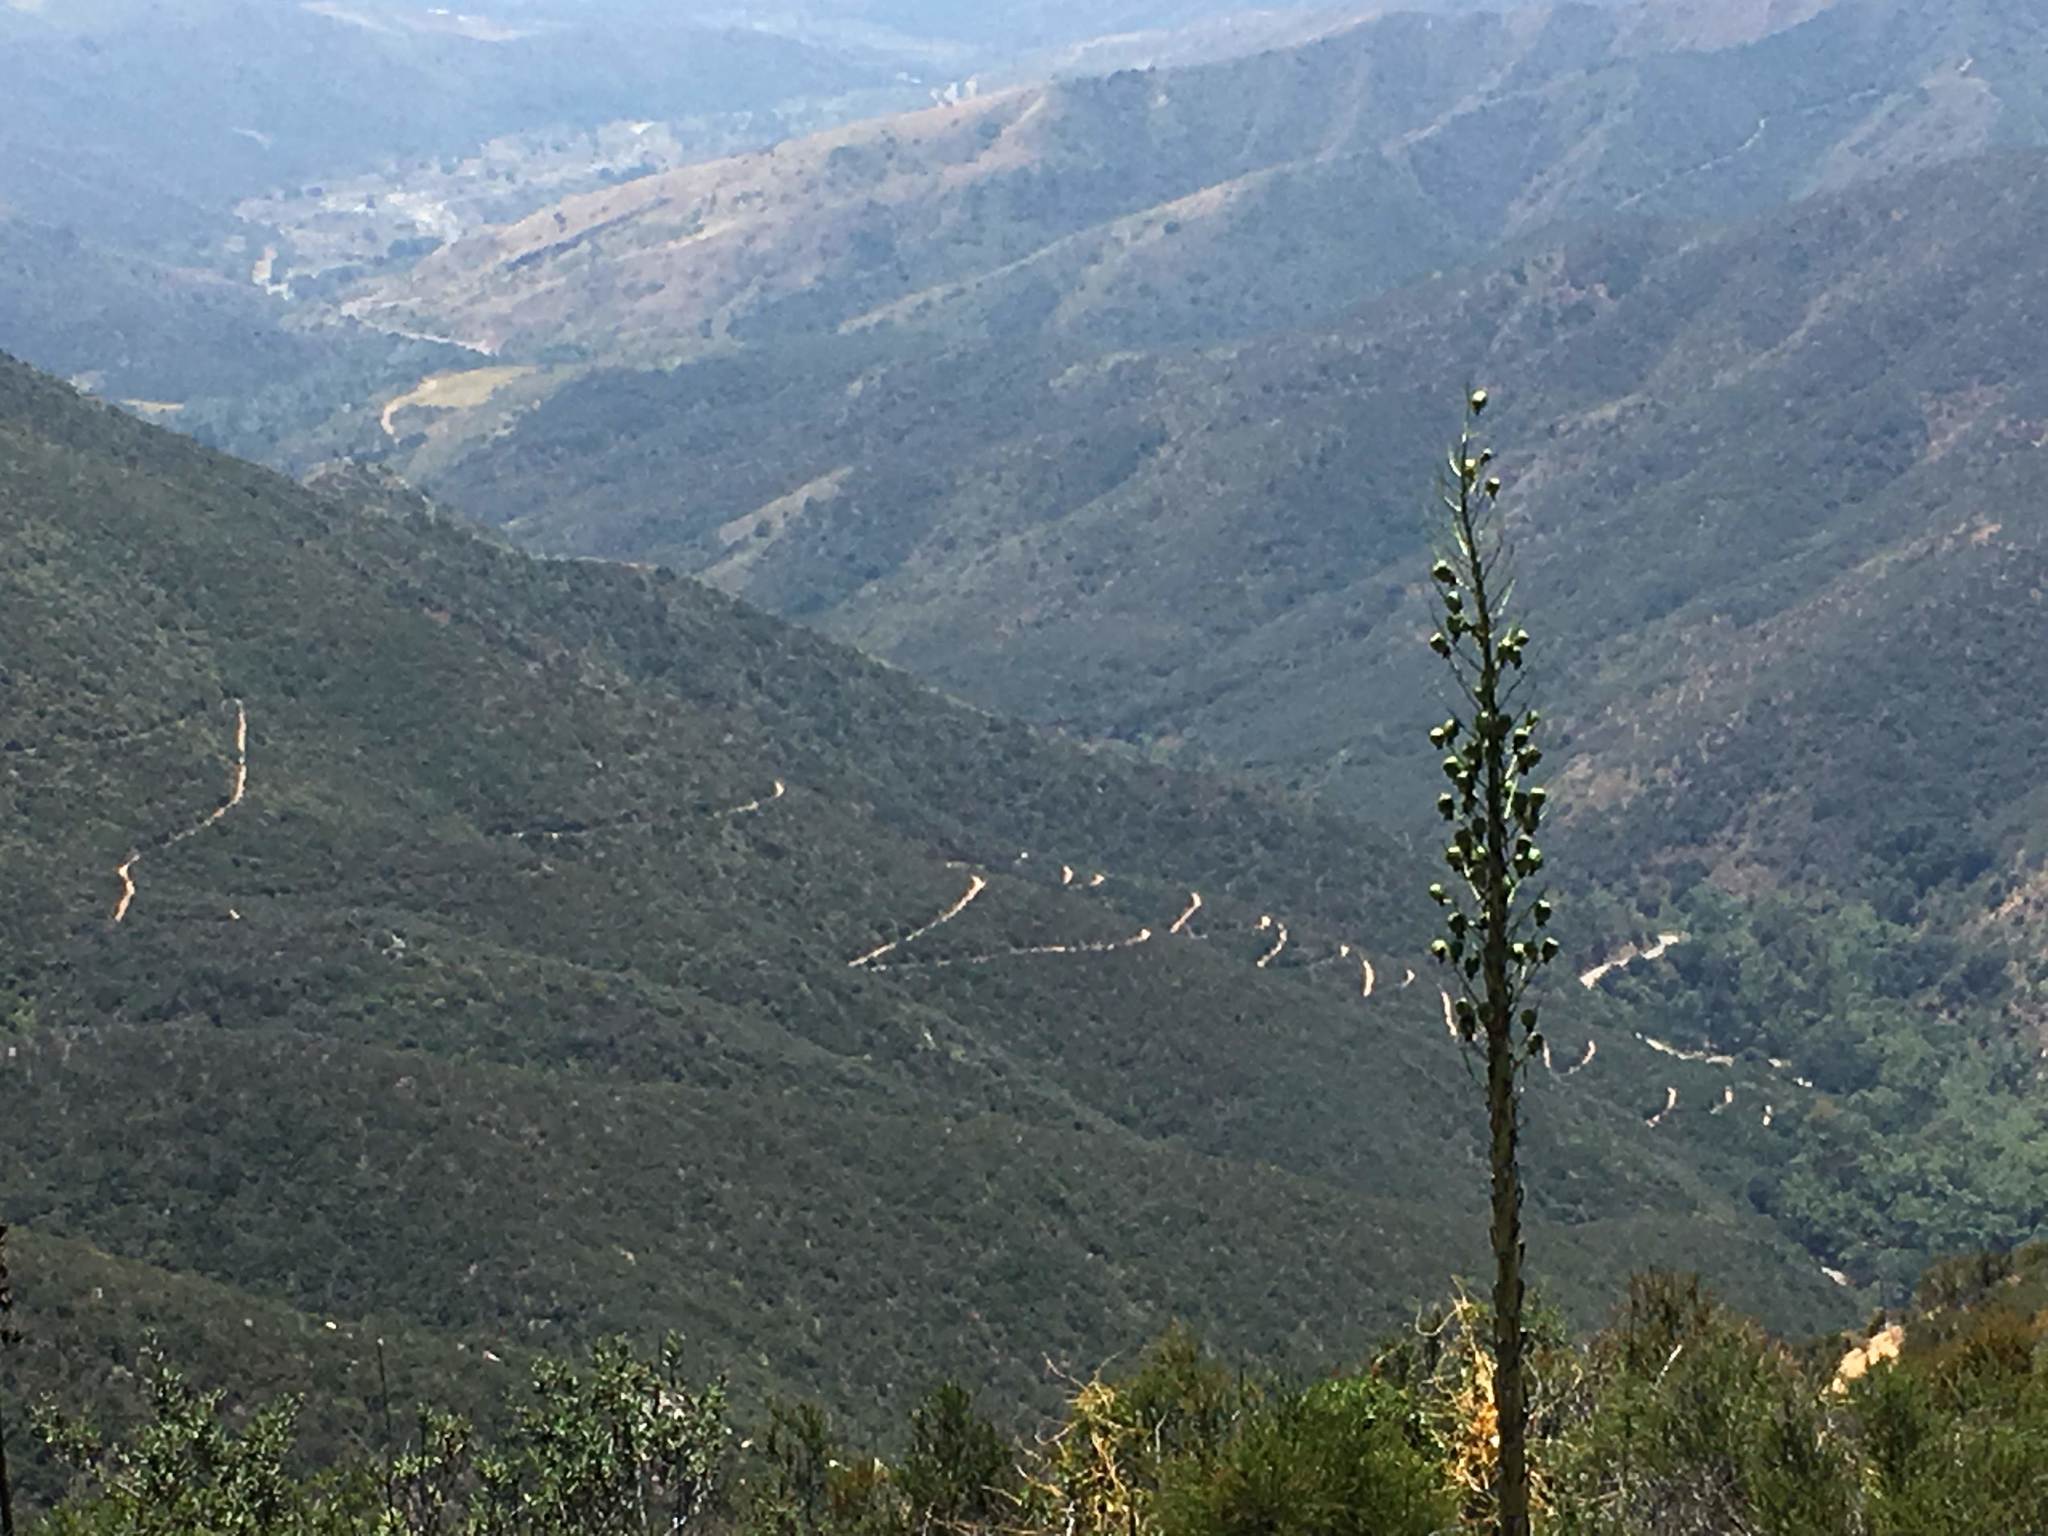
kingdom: Plantae
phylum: Tracheophyta
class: Liliopsida
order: Asparagales
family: Asparagaceae
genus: Hesperoyucca
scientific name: Hesperoyucca whipplei
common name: Our lord's-candle
